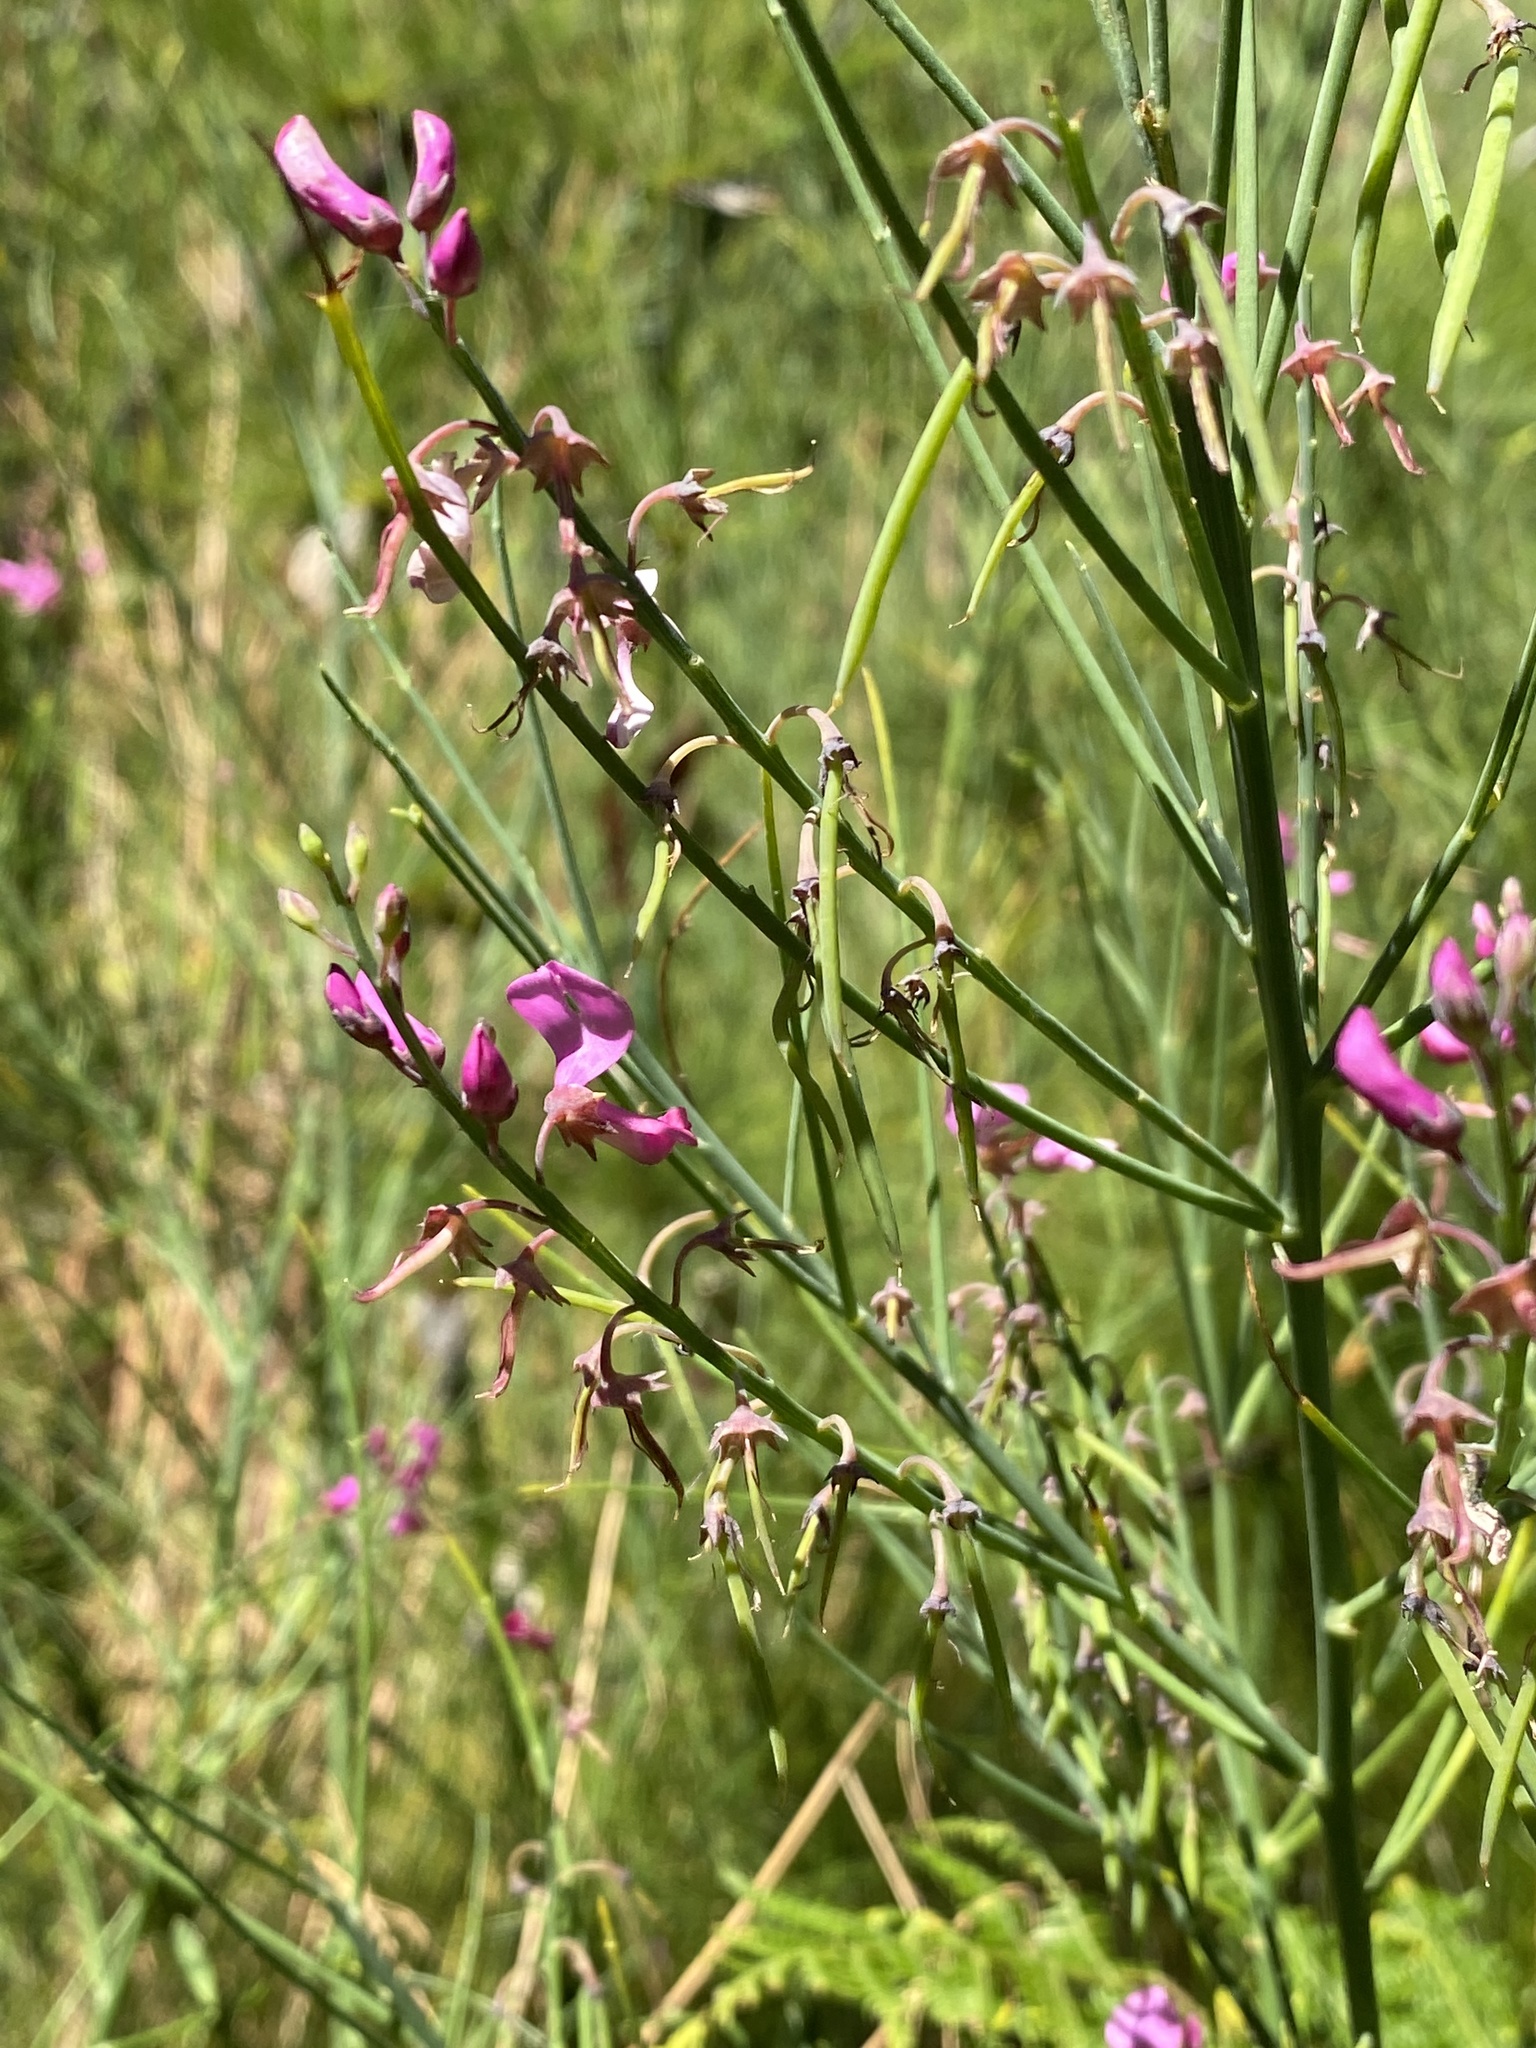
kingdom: Plantae
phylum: Tracheophyta
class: Magnoliopsida
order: Fabales
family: Fabaceae
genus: Indigofera
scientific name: Indigofera filifolia
